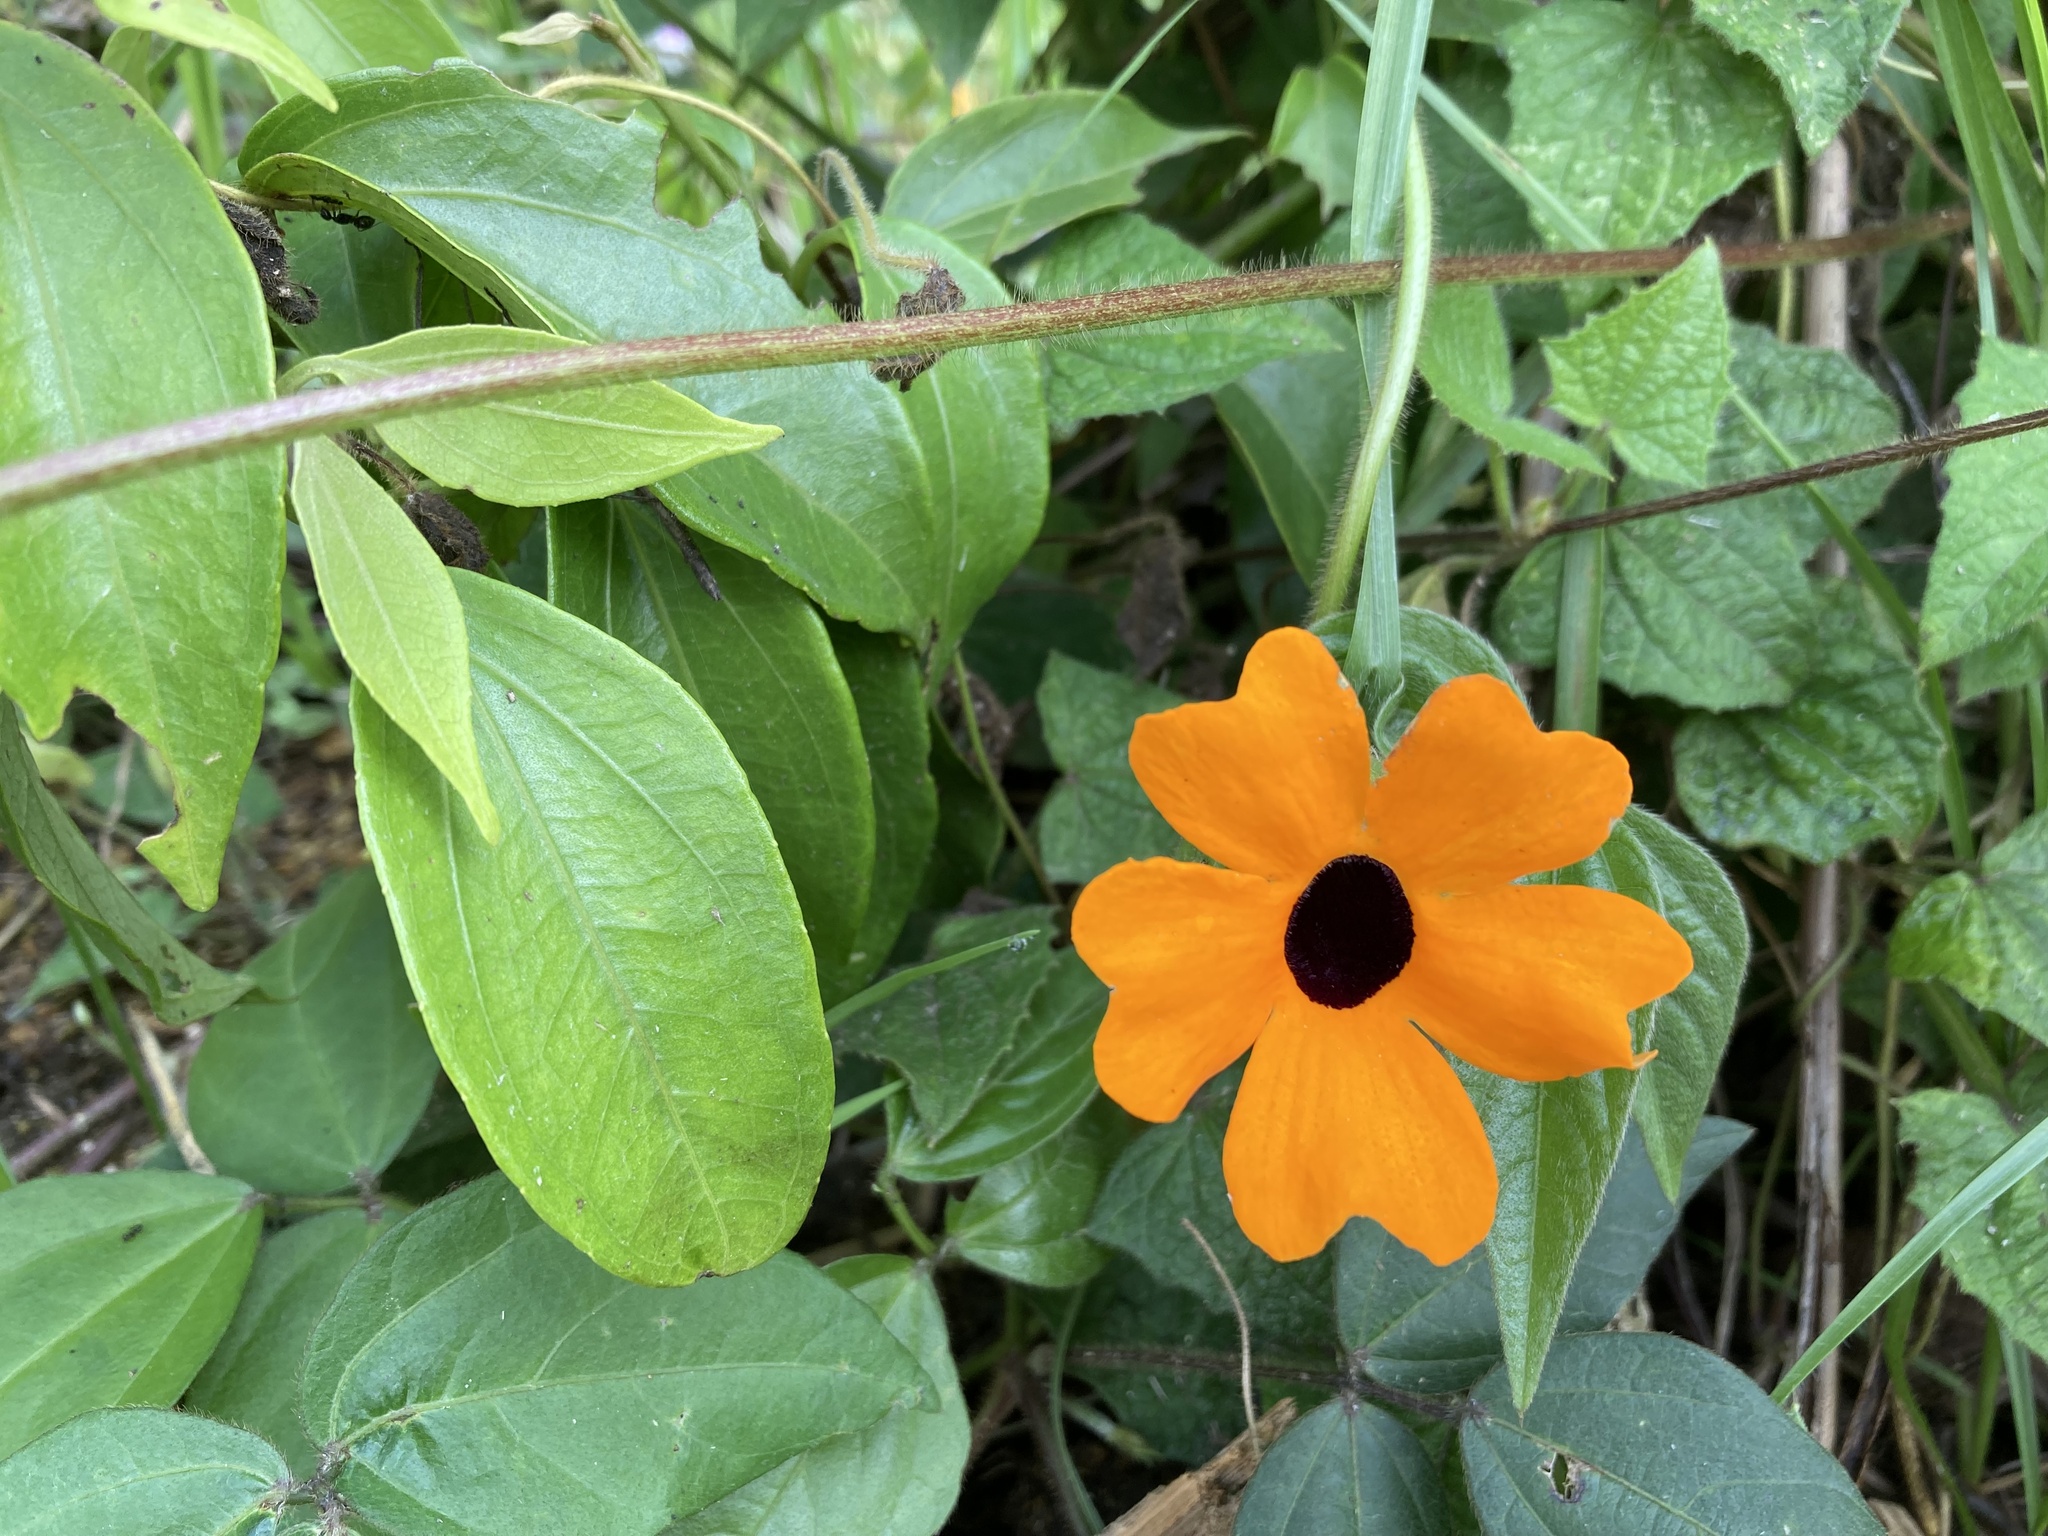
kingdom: Plantae
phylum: Tracheophyta
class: Magnoliopsida
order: Lamiales
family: Acanthaceae
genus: Thunbergia
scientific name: Thunbergia alata
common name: Blackeyed susan vine
